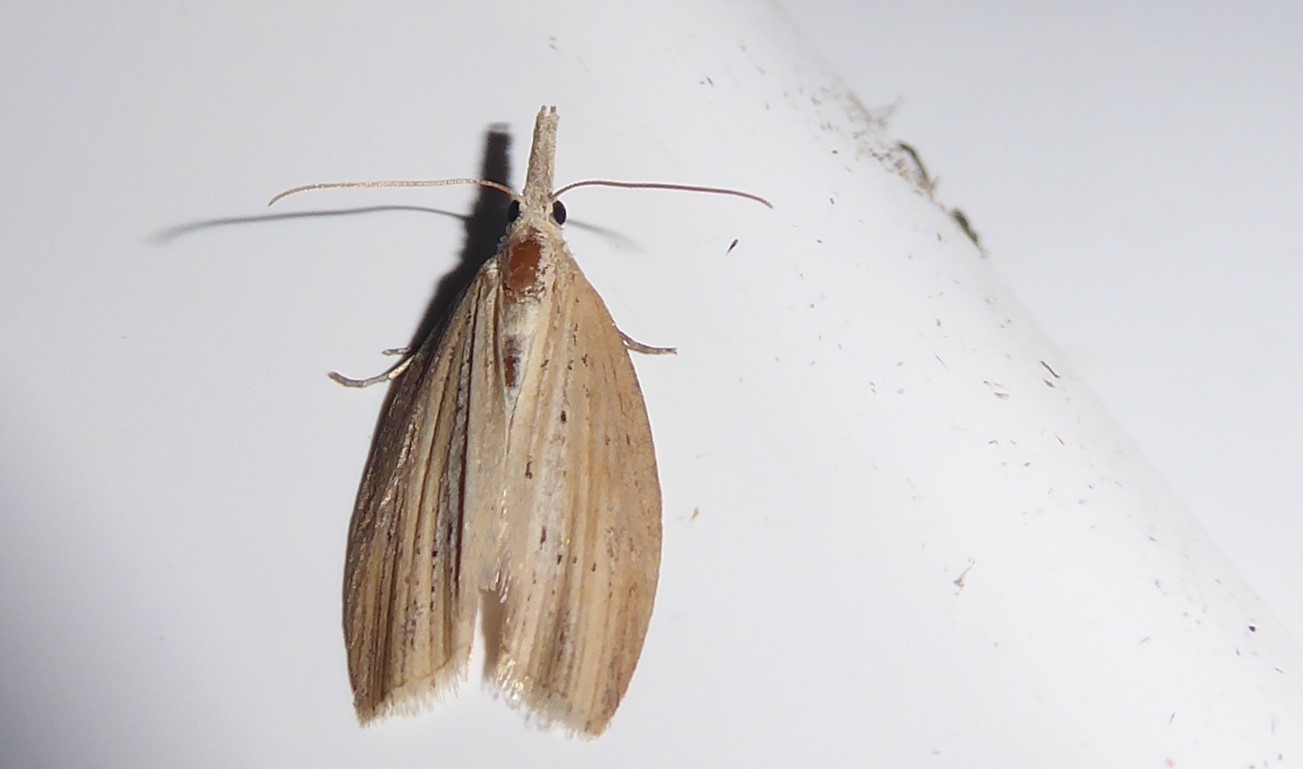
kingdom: Animalia
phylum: Arthropoda
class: Insecta
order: Lepidoptera
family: Geometridae
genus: Microdes
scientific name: Microdes epicryptis
